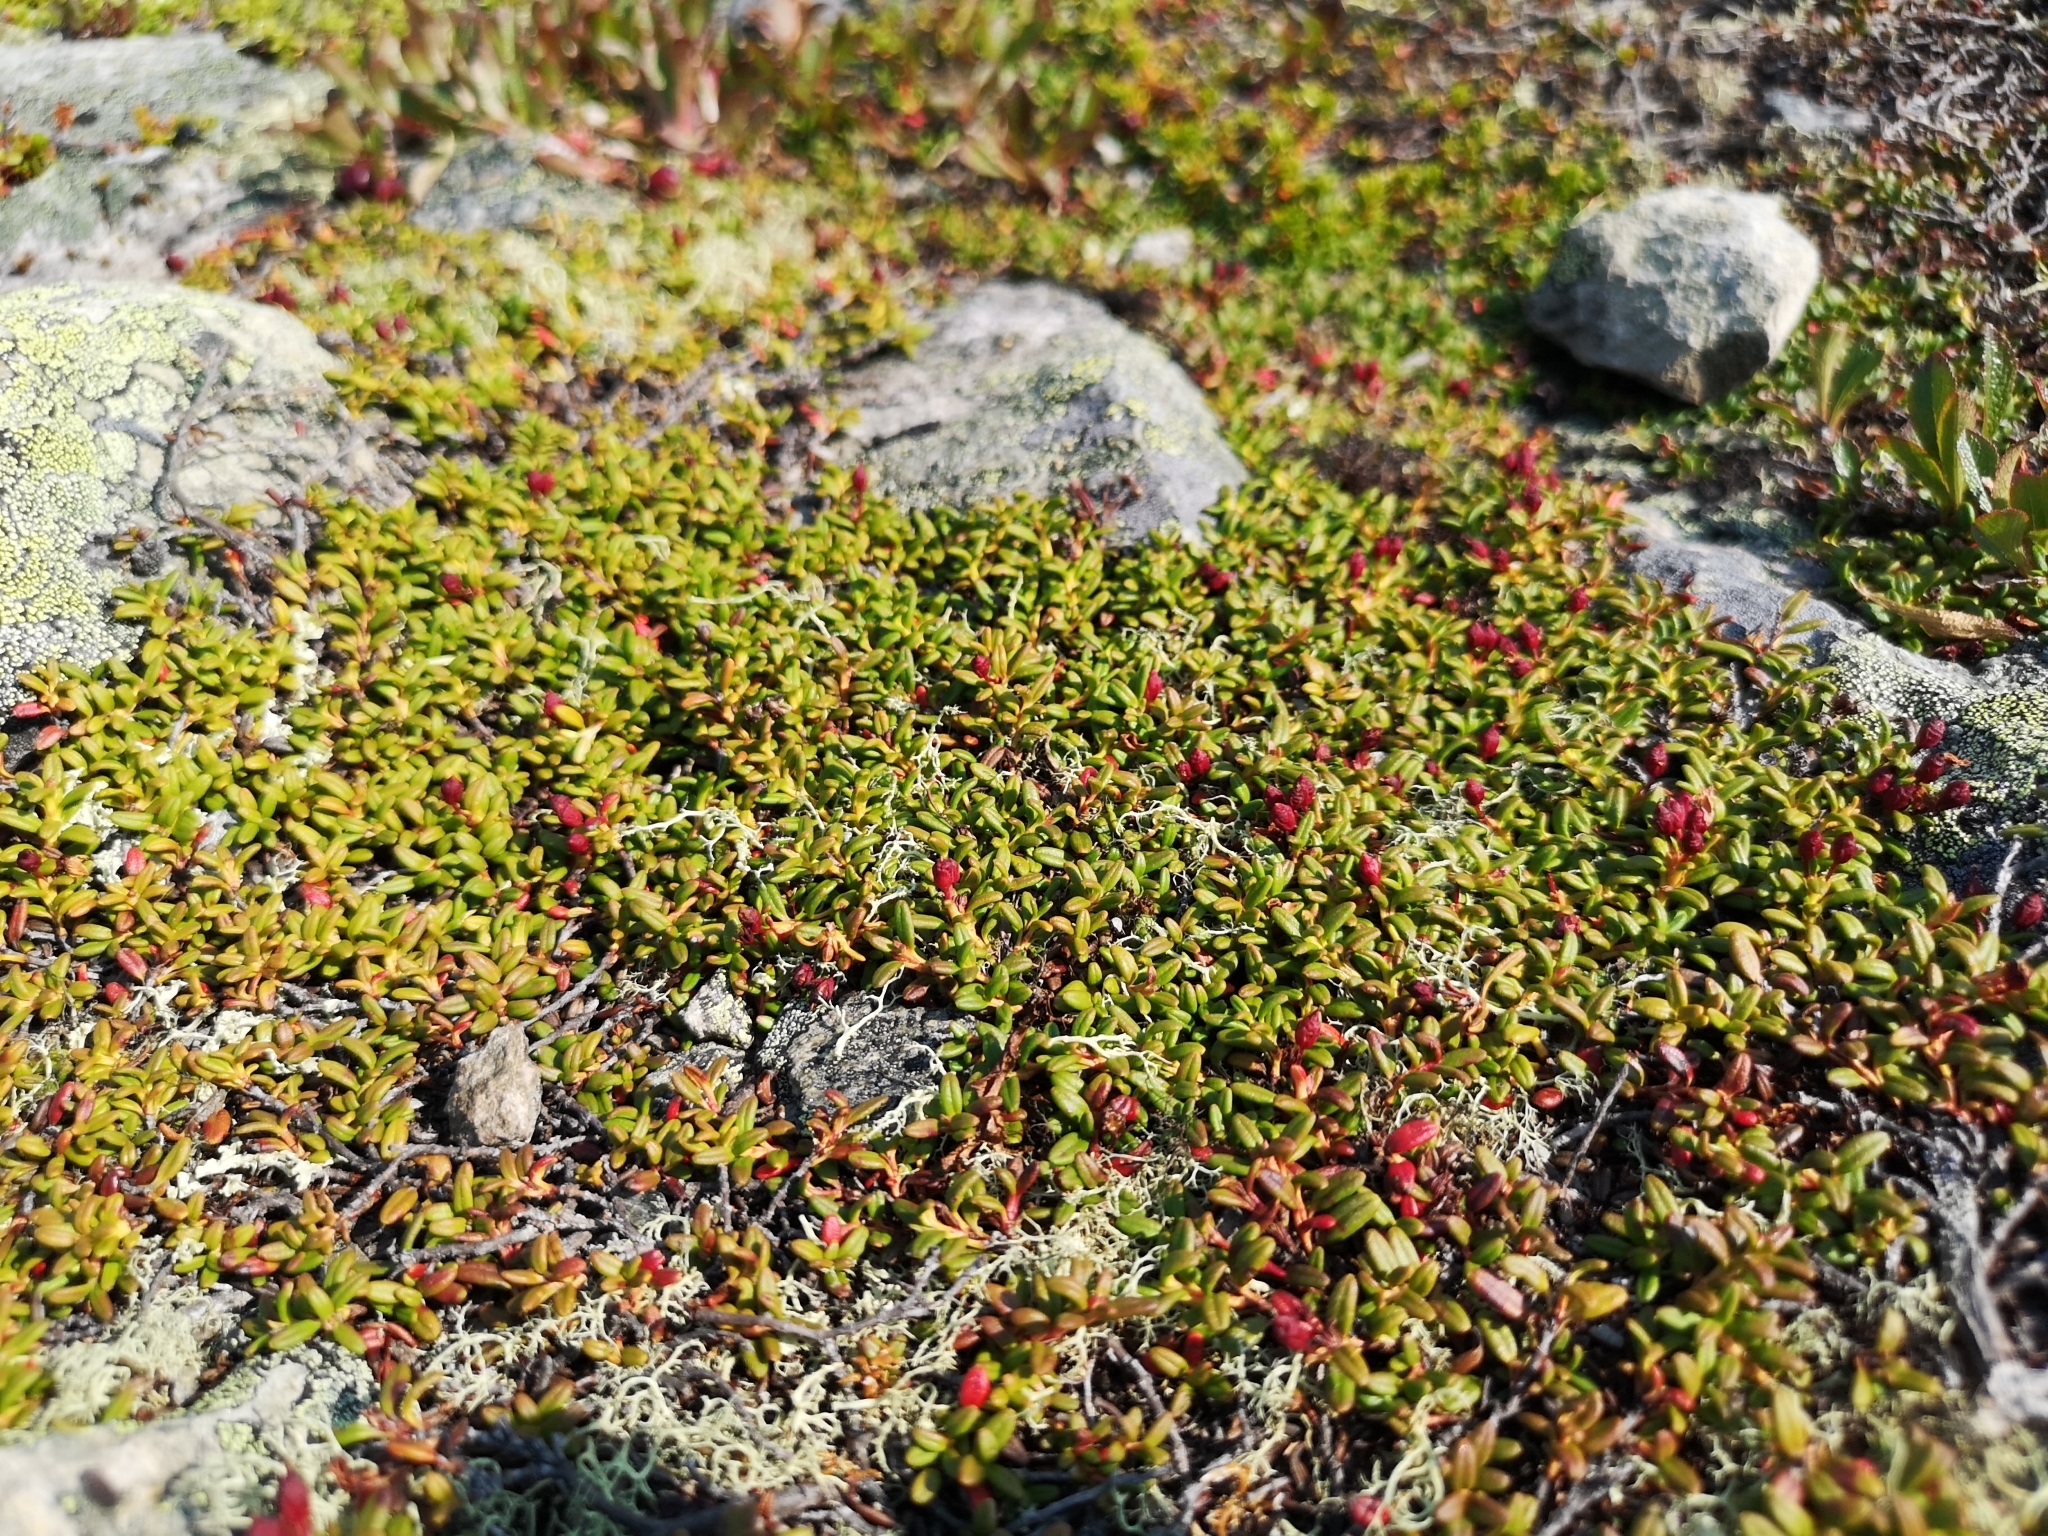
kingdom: Plantae
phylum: Tracheophyta
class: Magnoliopsida
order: Ericales
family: Ericaceae
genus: Kalmia
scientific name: Kalmia procumbens
